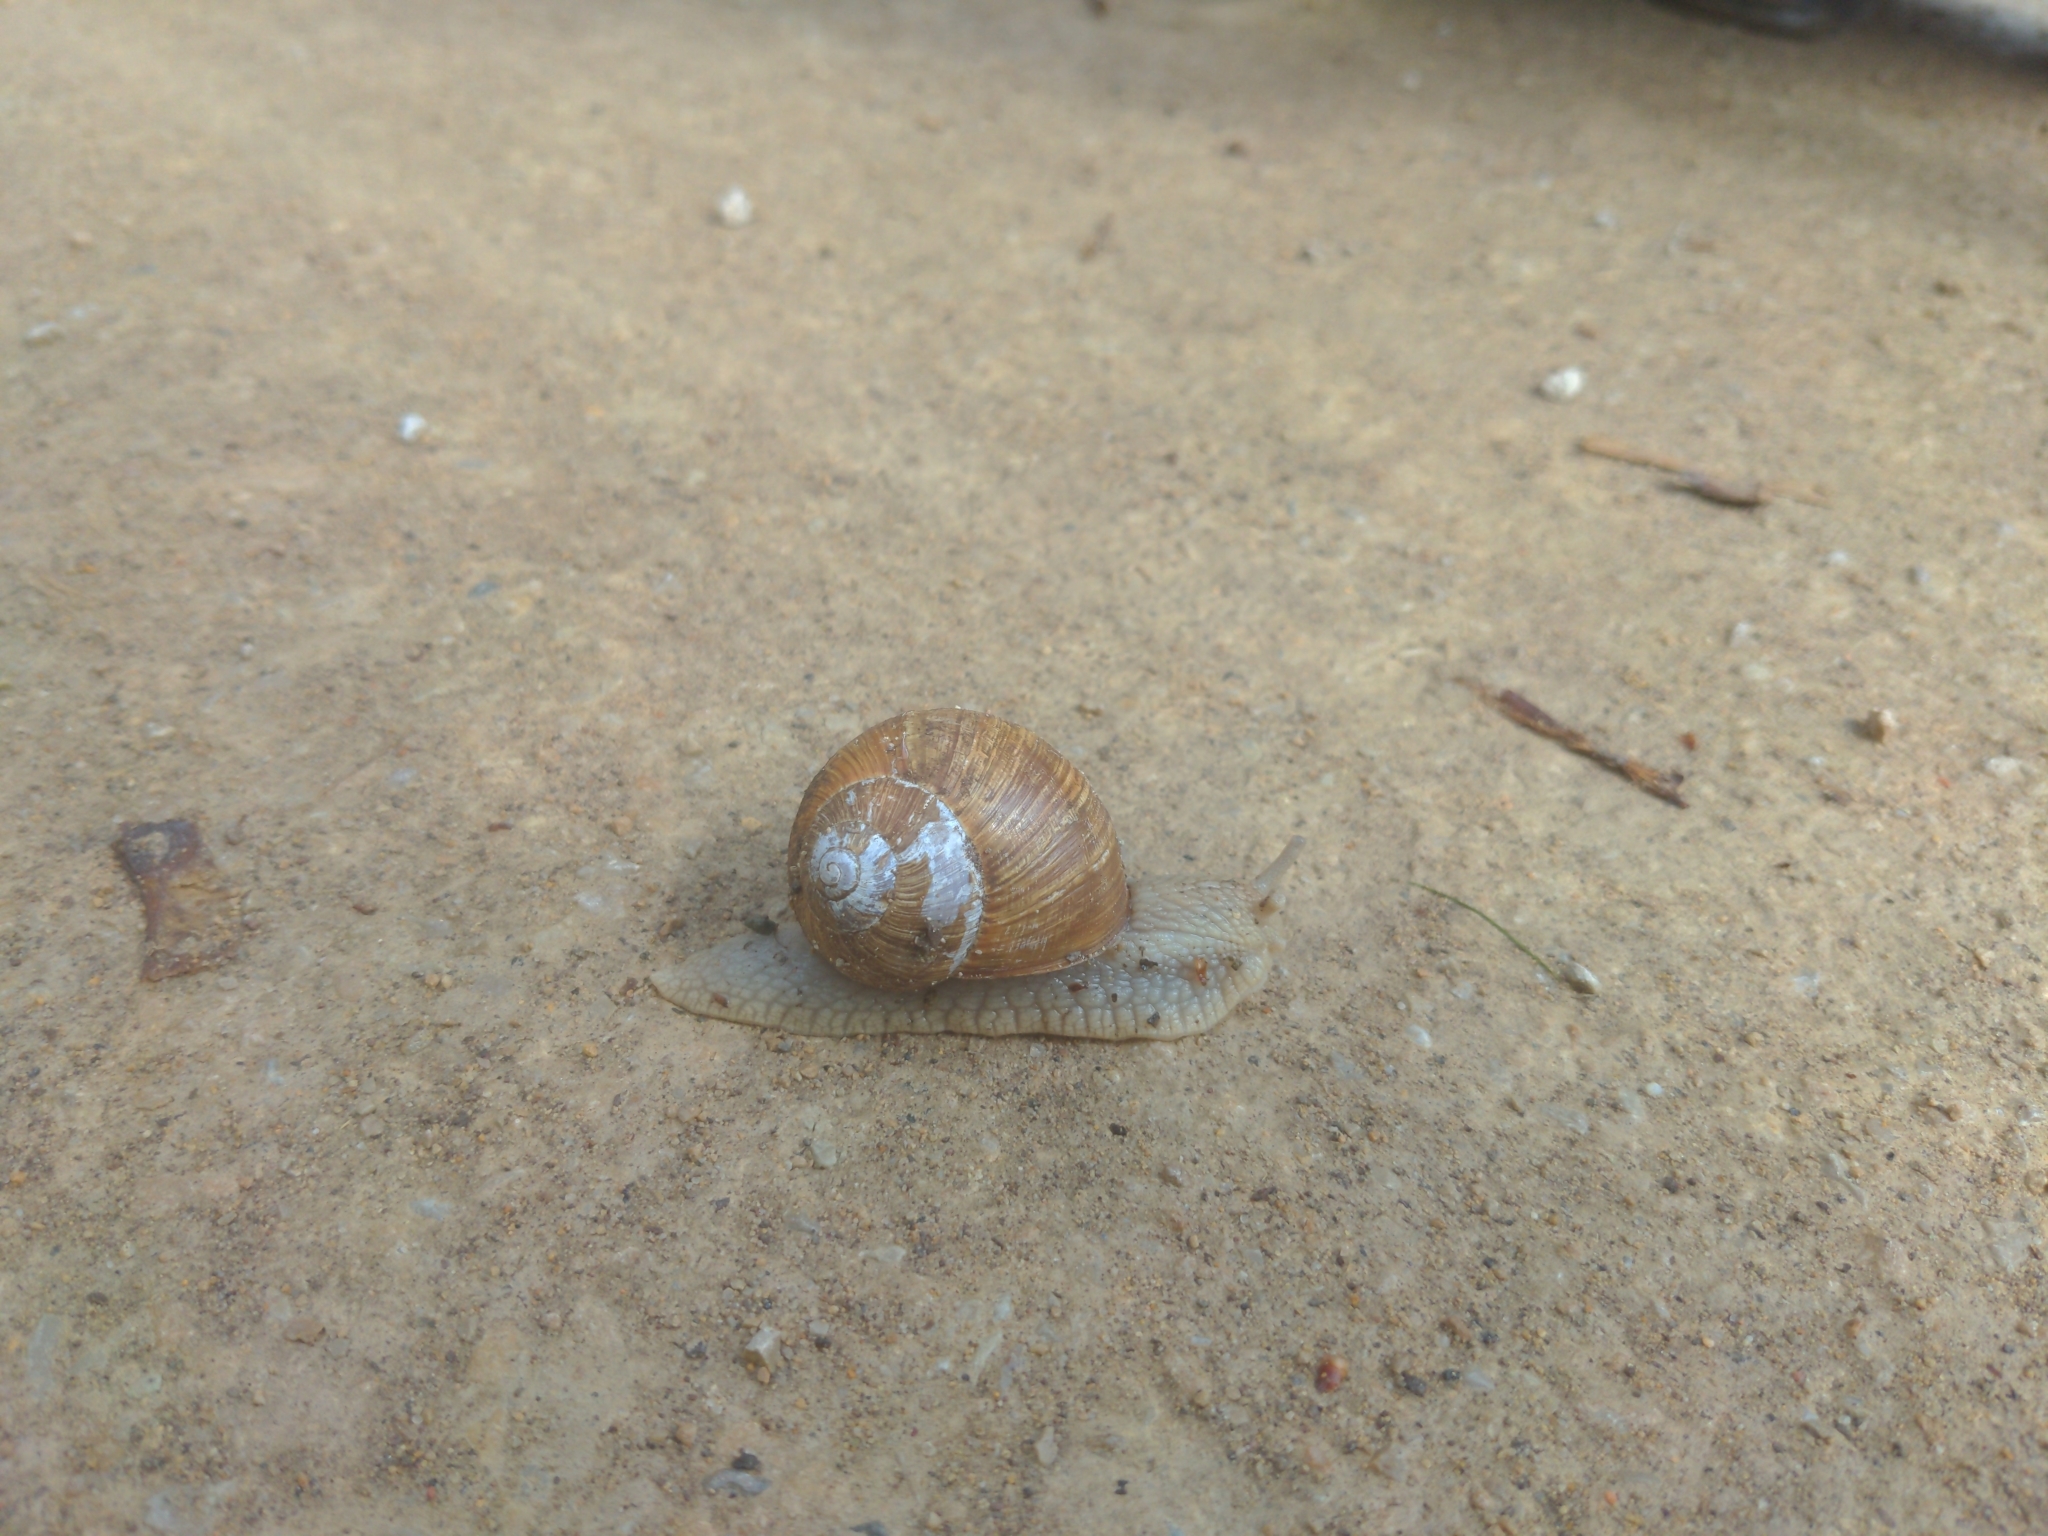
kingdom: Animalia
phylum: Mollusca
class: Gastropoda
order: Stylommatophora
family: Helicidae
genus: Helix
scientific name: Helix pomatia
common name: Roman snail
